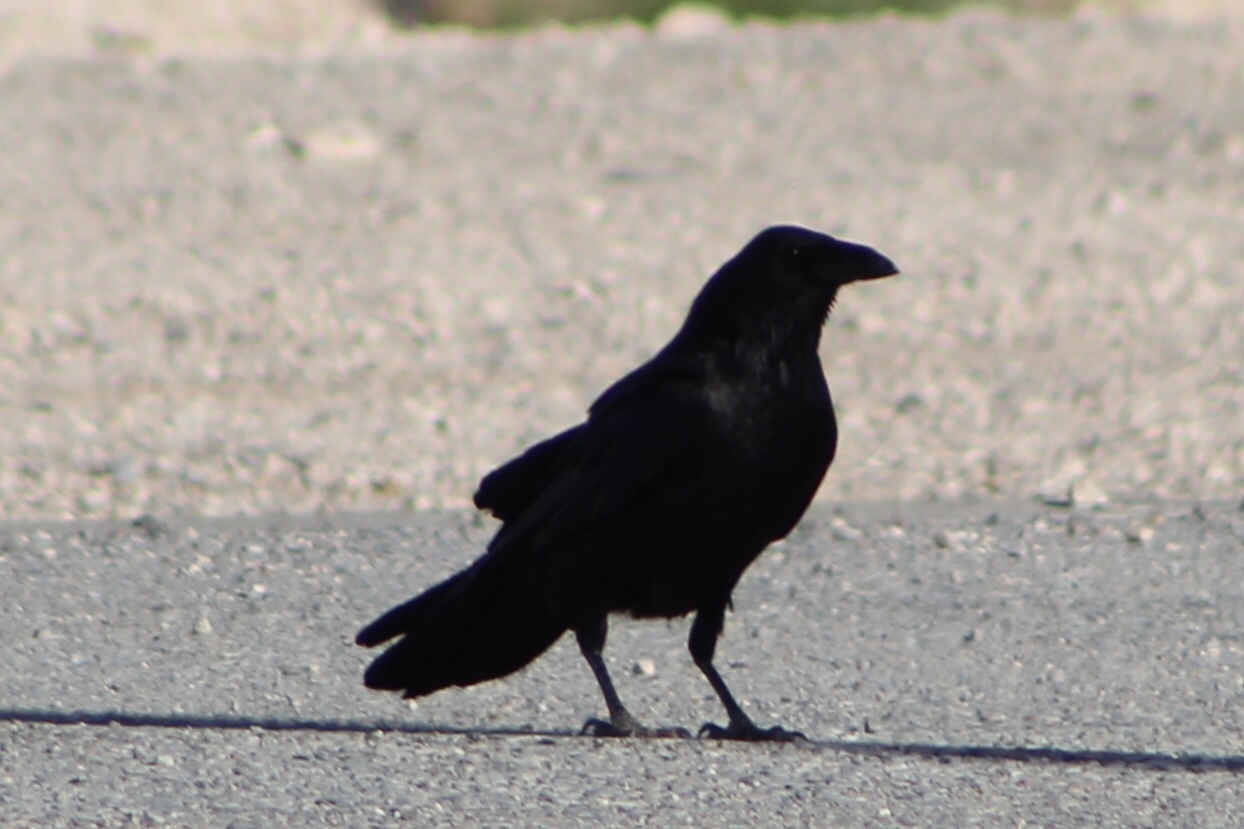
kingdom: Animalia
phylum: Chordata
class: Aves
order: Passeriformes
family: Corvidae
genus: Corvus
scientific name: Corvus
